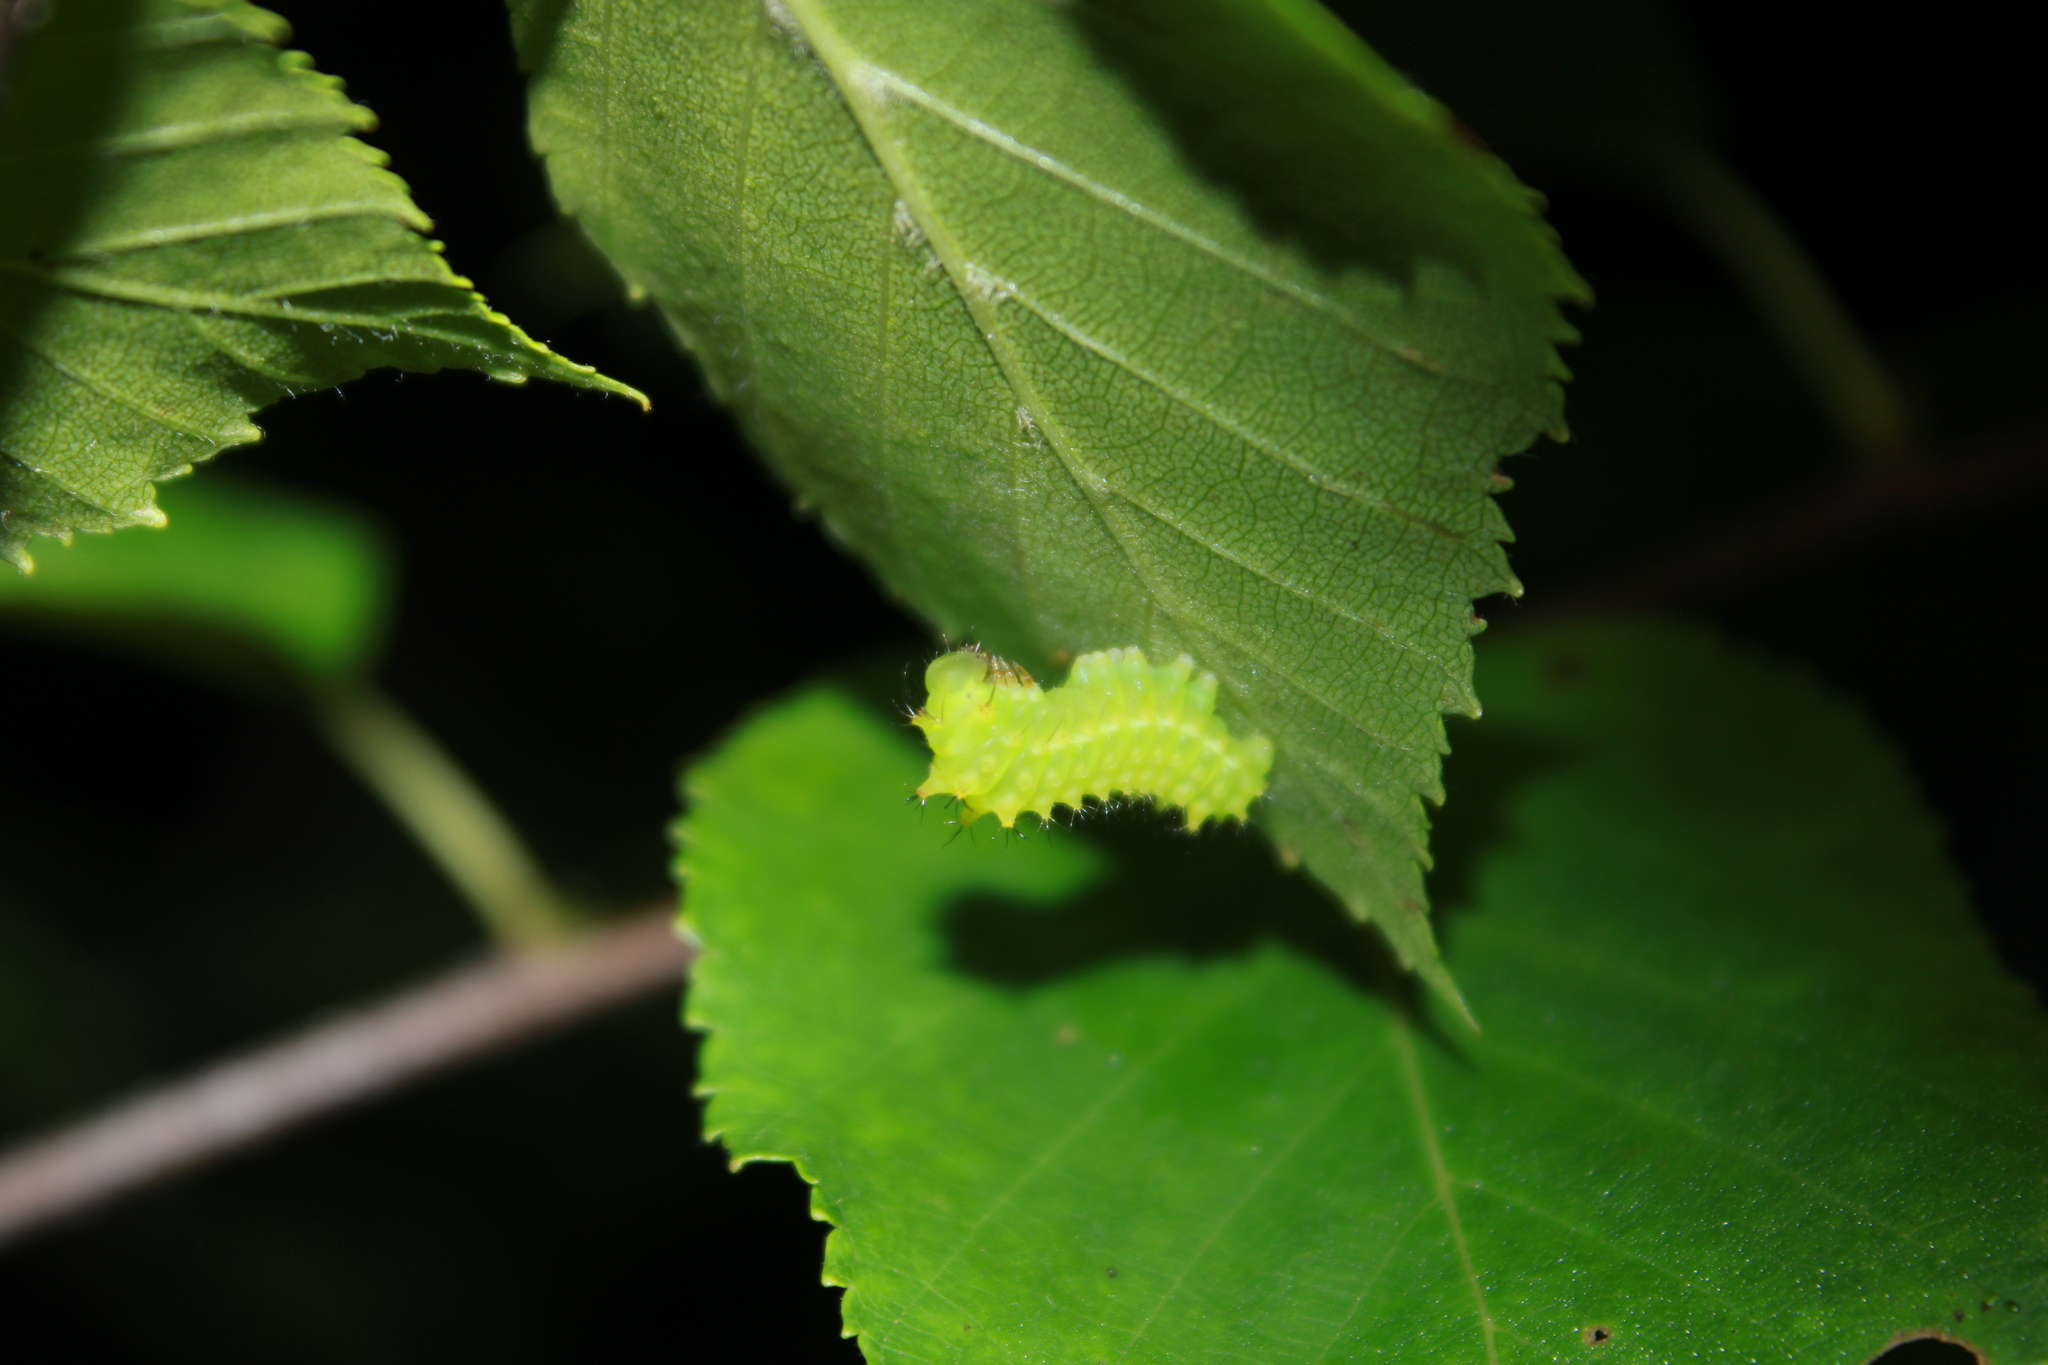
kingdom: Animalia
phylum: Arthropoda
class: Insecta
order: Lepidoptera
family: Saturniidae
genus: Actias
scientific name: Actias luna
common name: Luna moth
